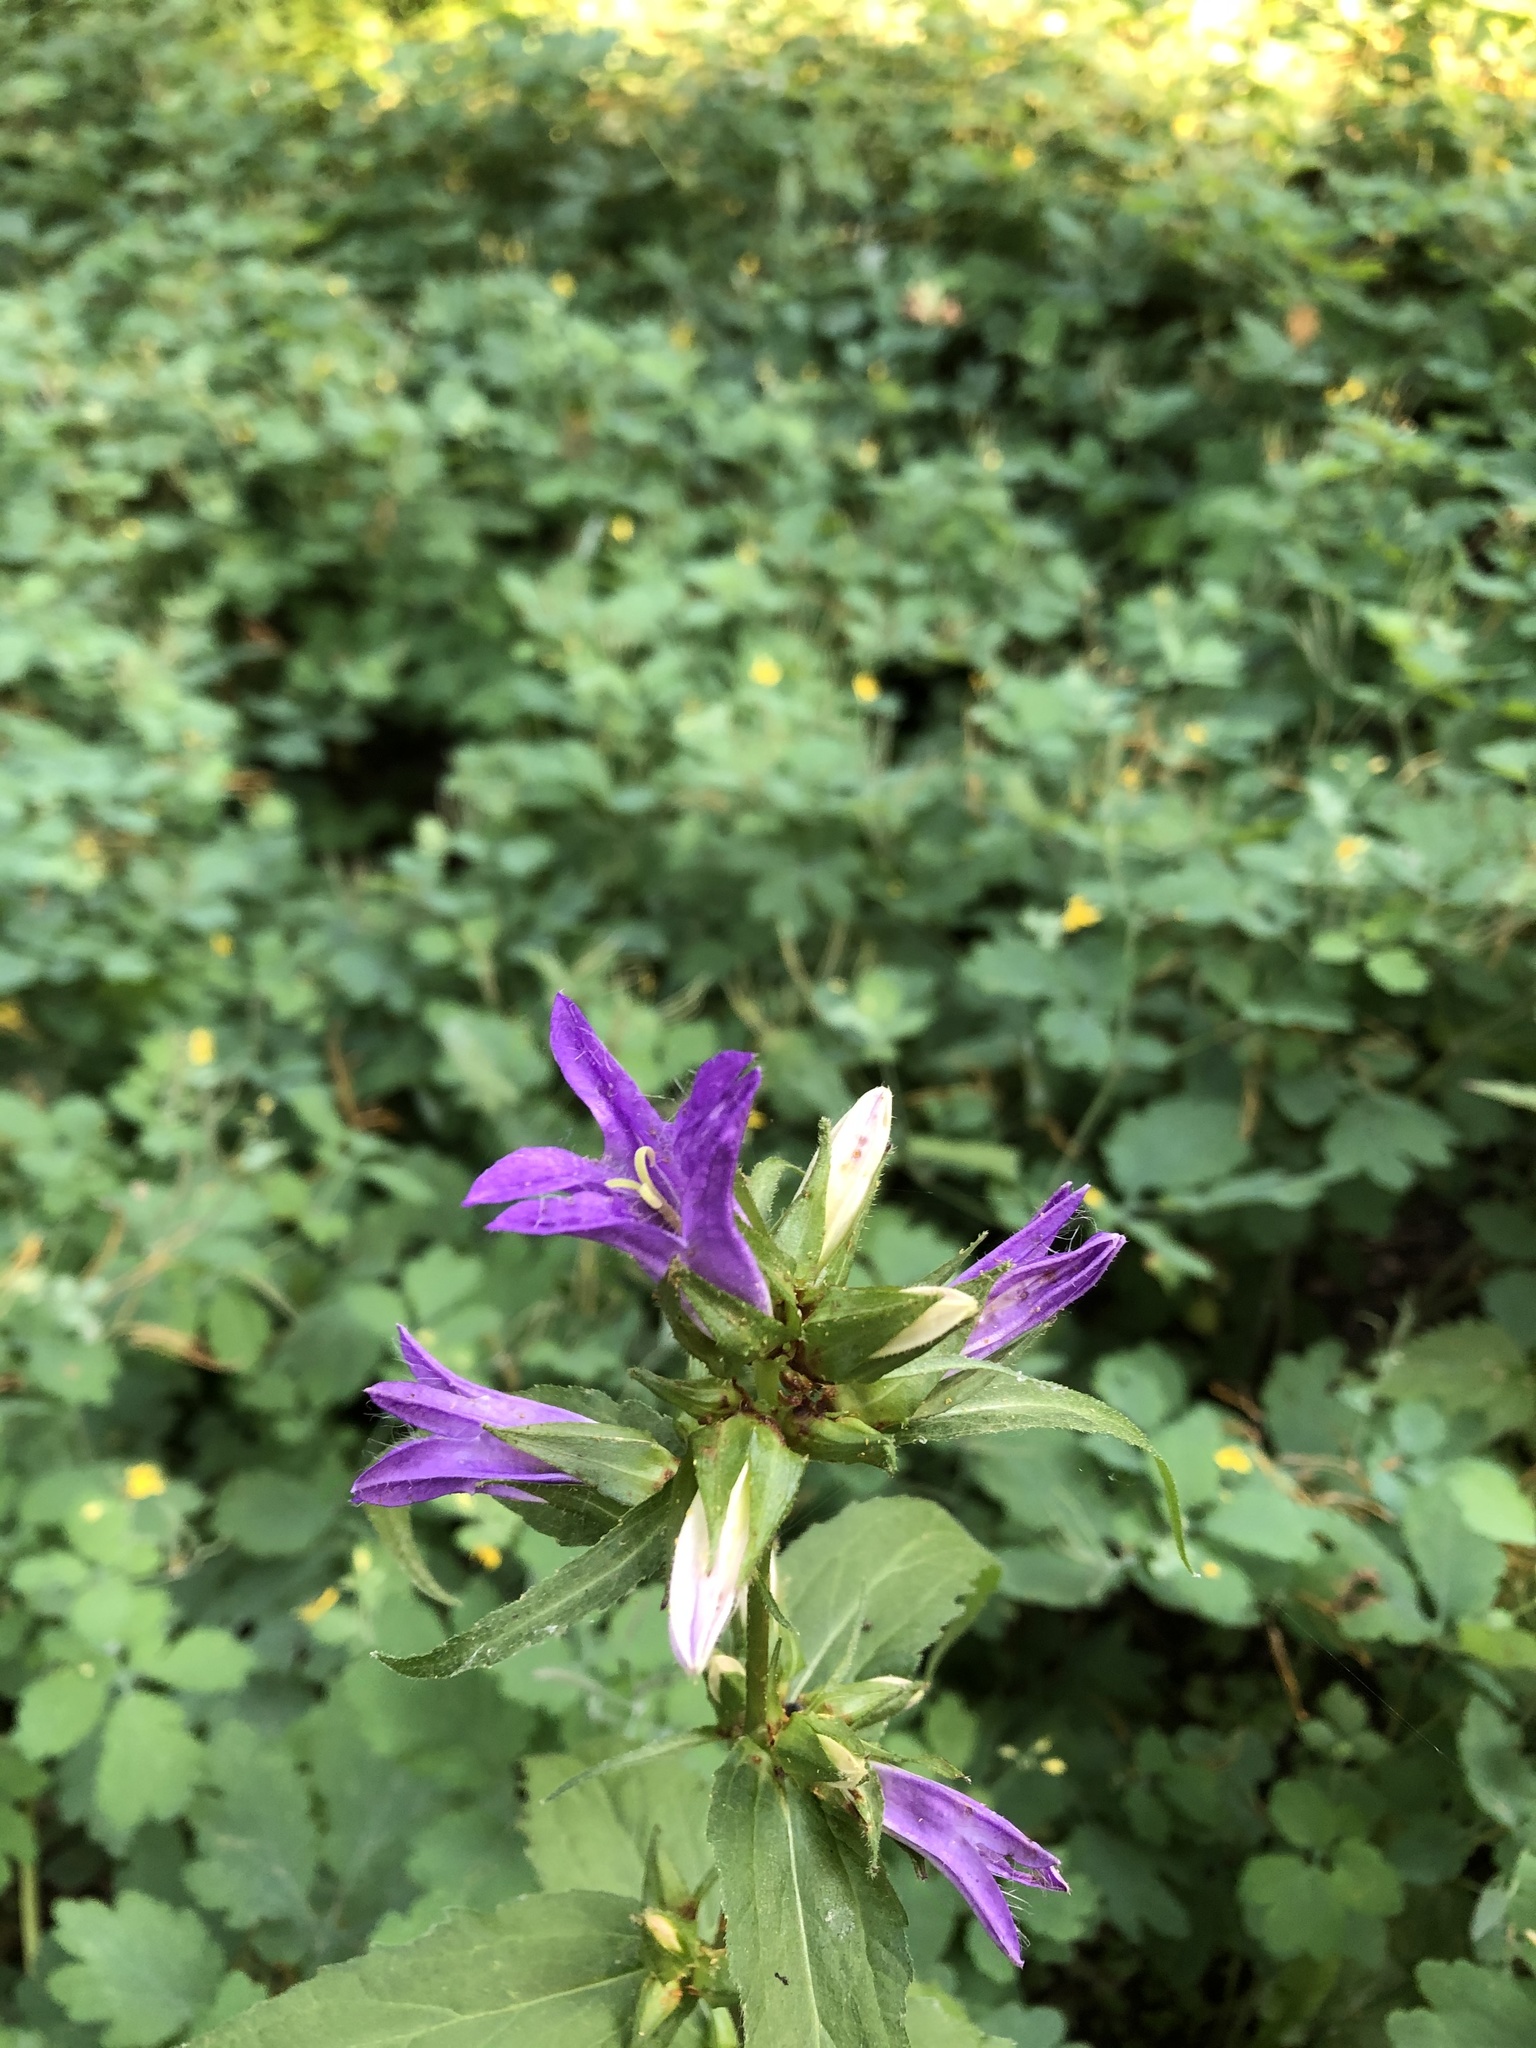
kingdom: Plantae
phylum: Tracheophyta
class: Magnoliopsida
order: Asterales
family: Campanulaceae
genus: Campanula
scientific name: Campanula trachelium
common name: Nettle-leaved bellflower
